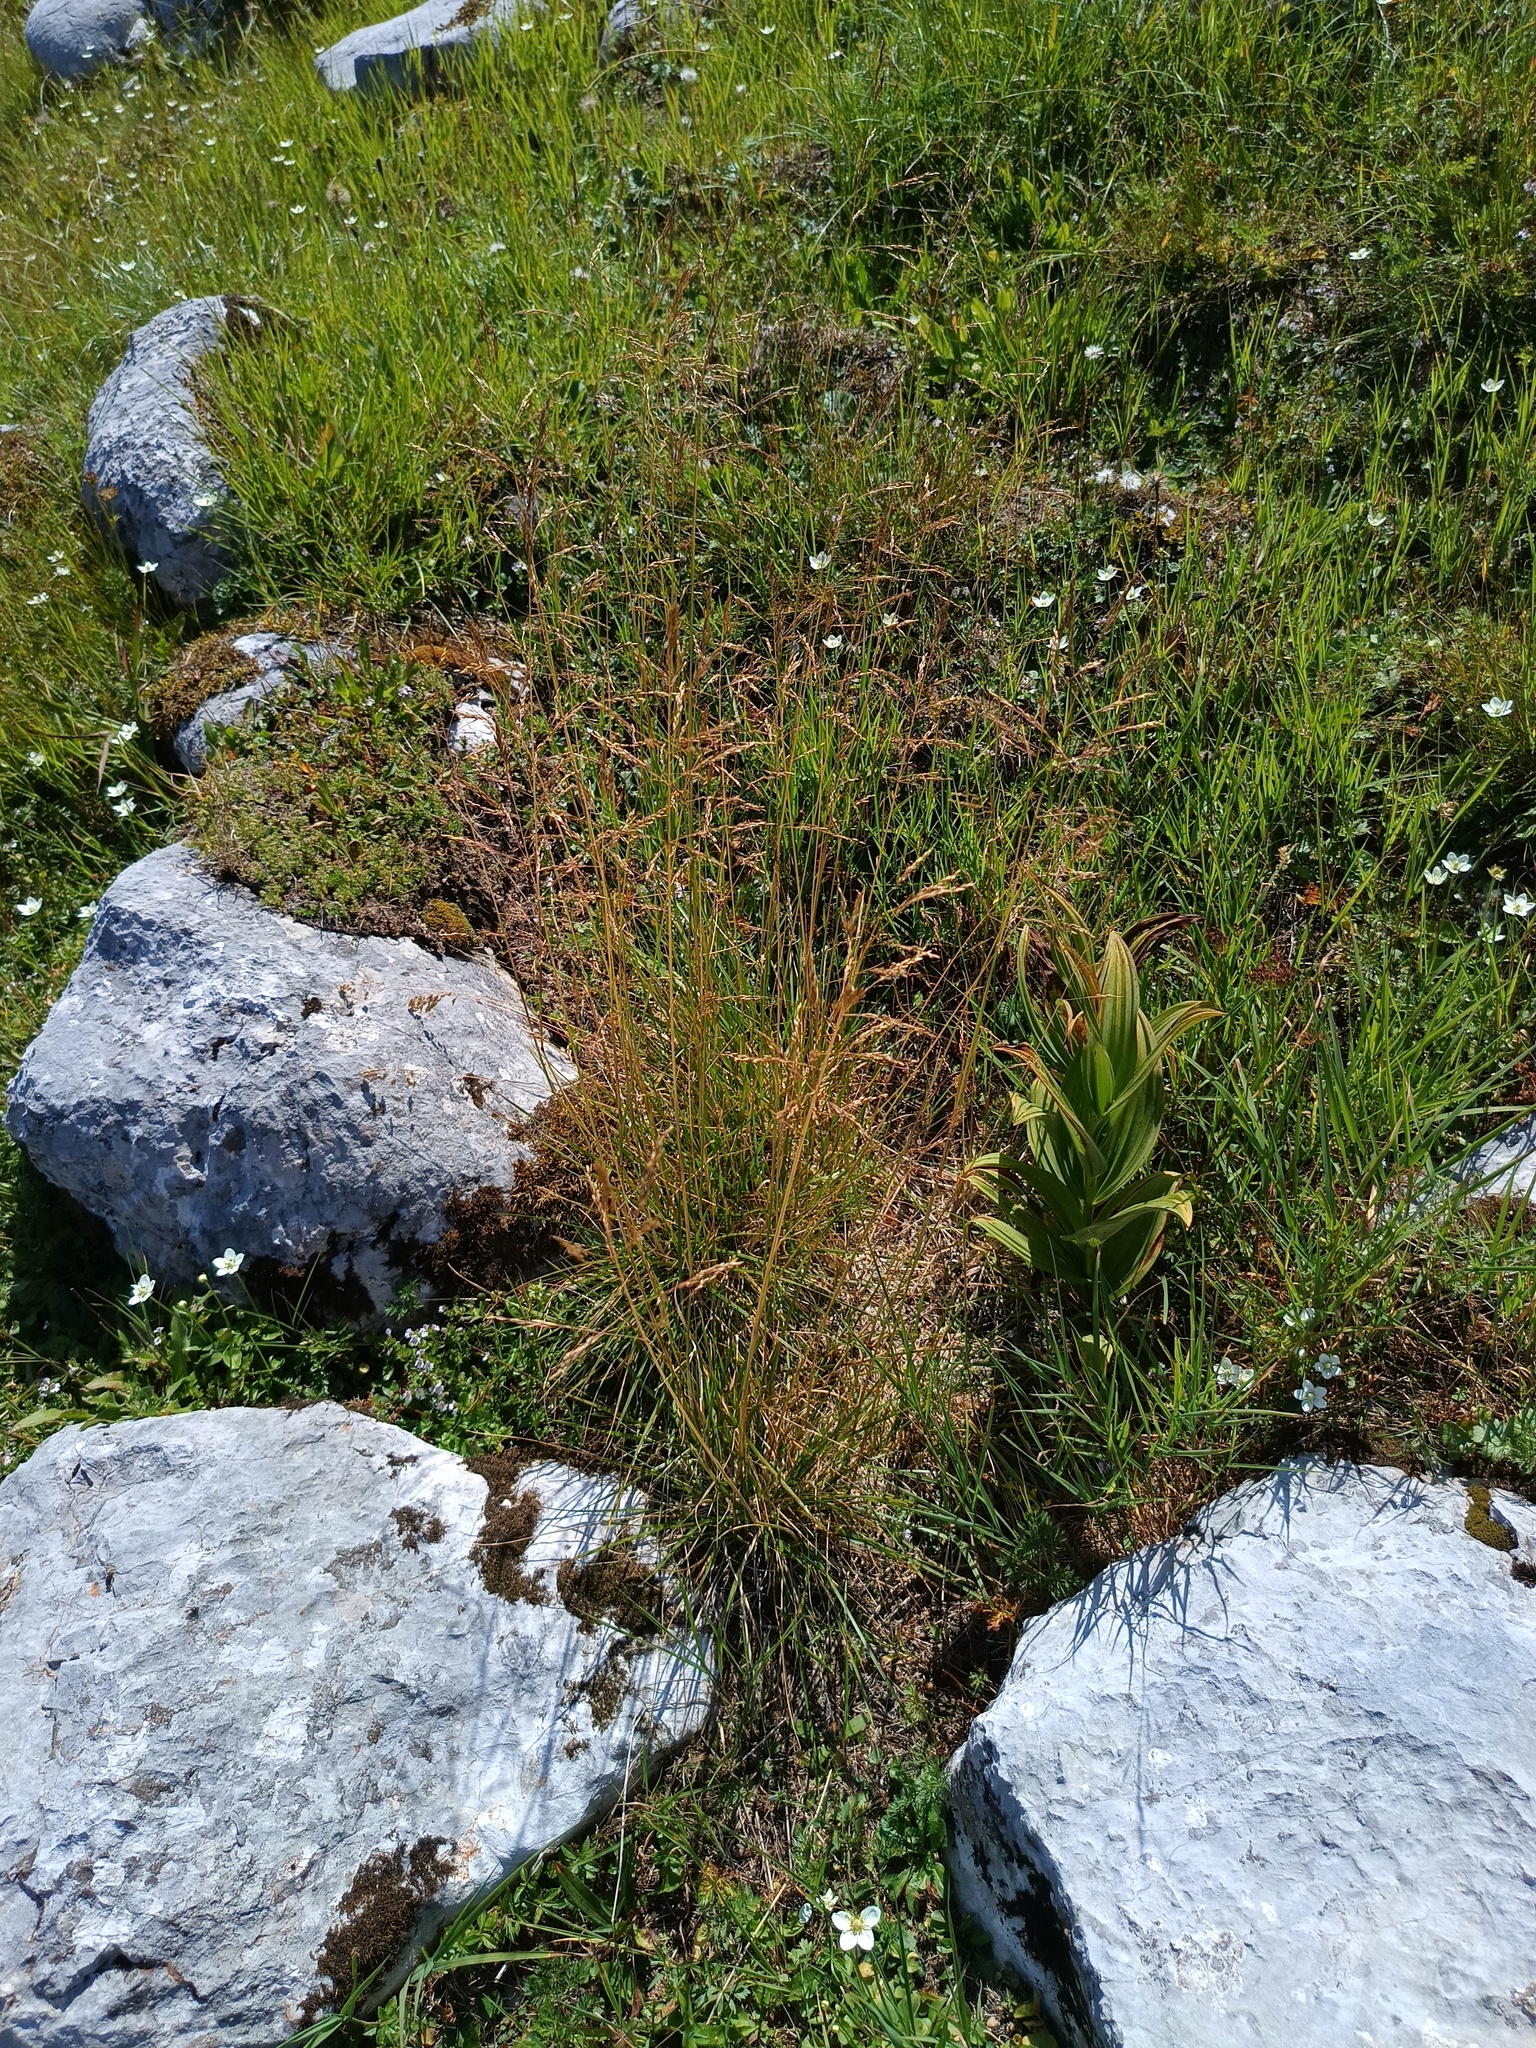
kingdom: Plantae
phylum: Tracheophyta
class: Liliopsida
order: Poales
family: Poaceae
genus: Deschampsia
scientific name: Deschampsia cespitosa
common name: Tufted hair-grass
